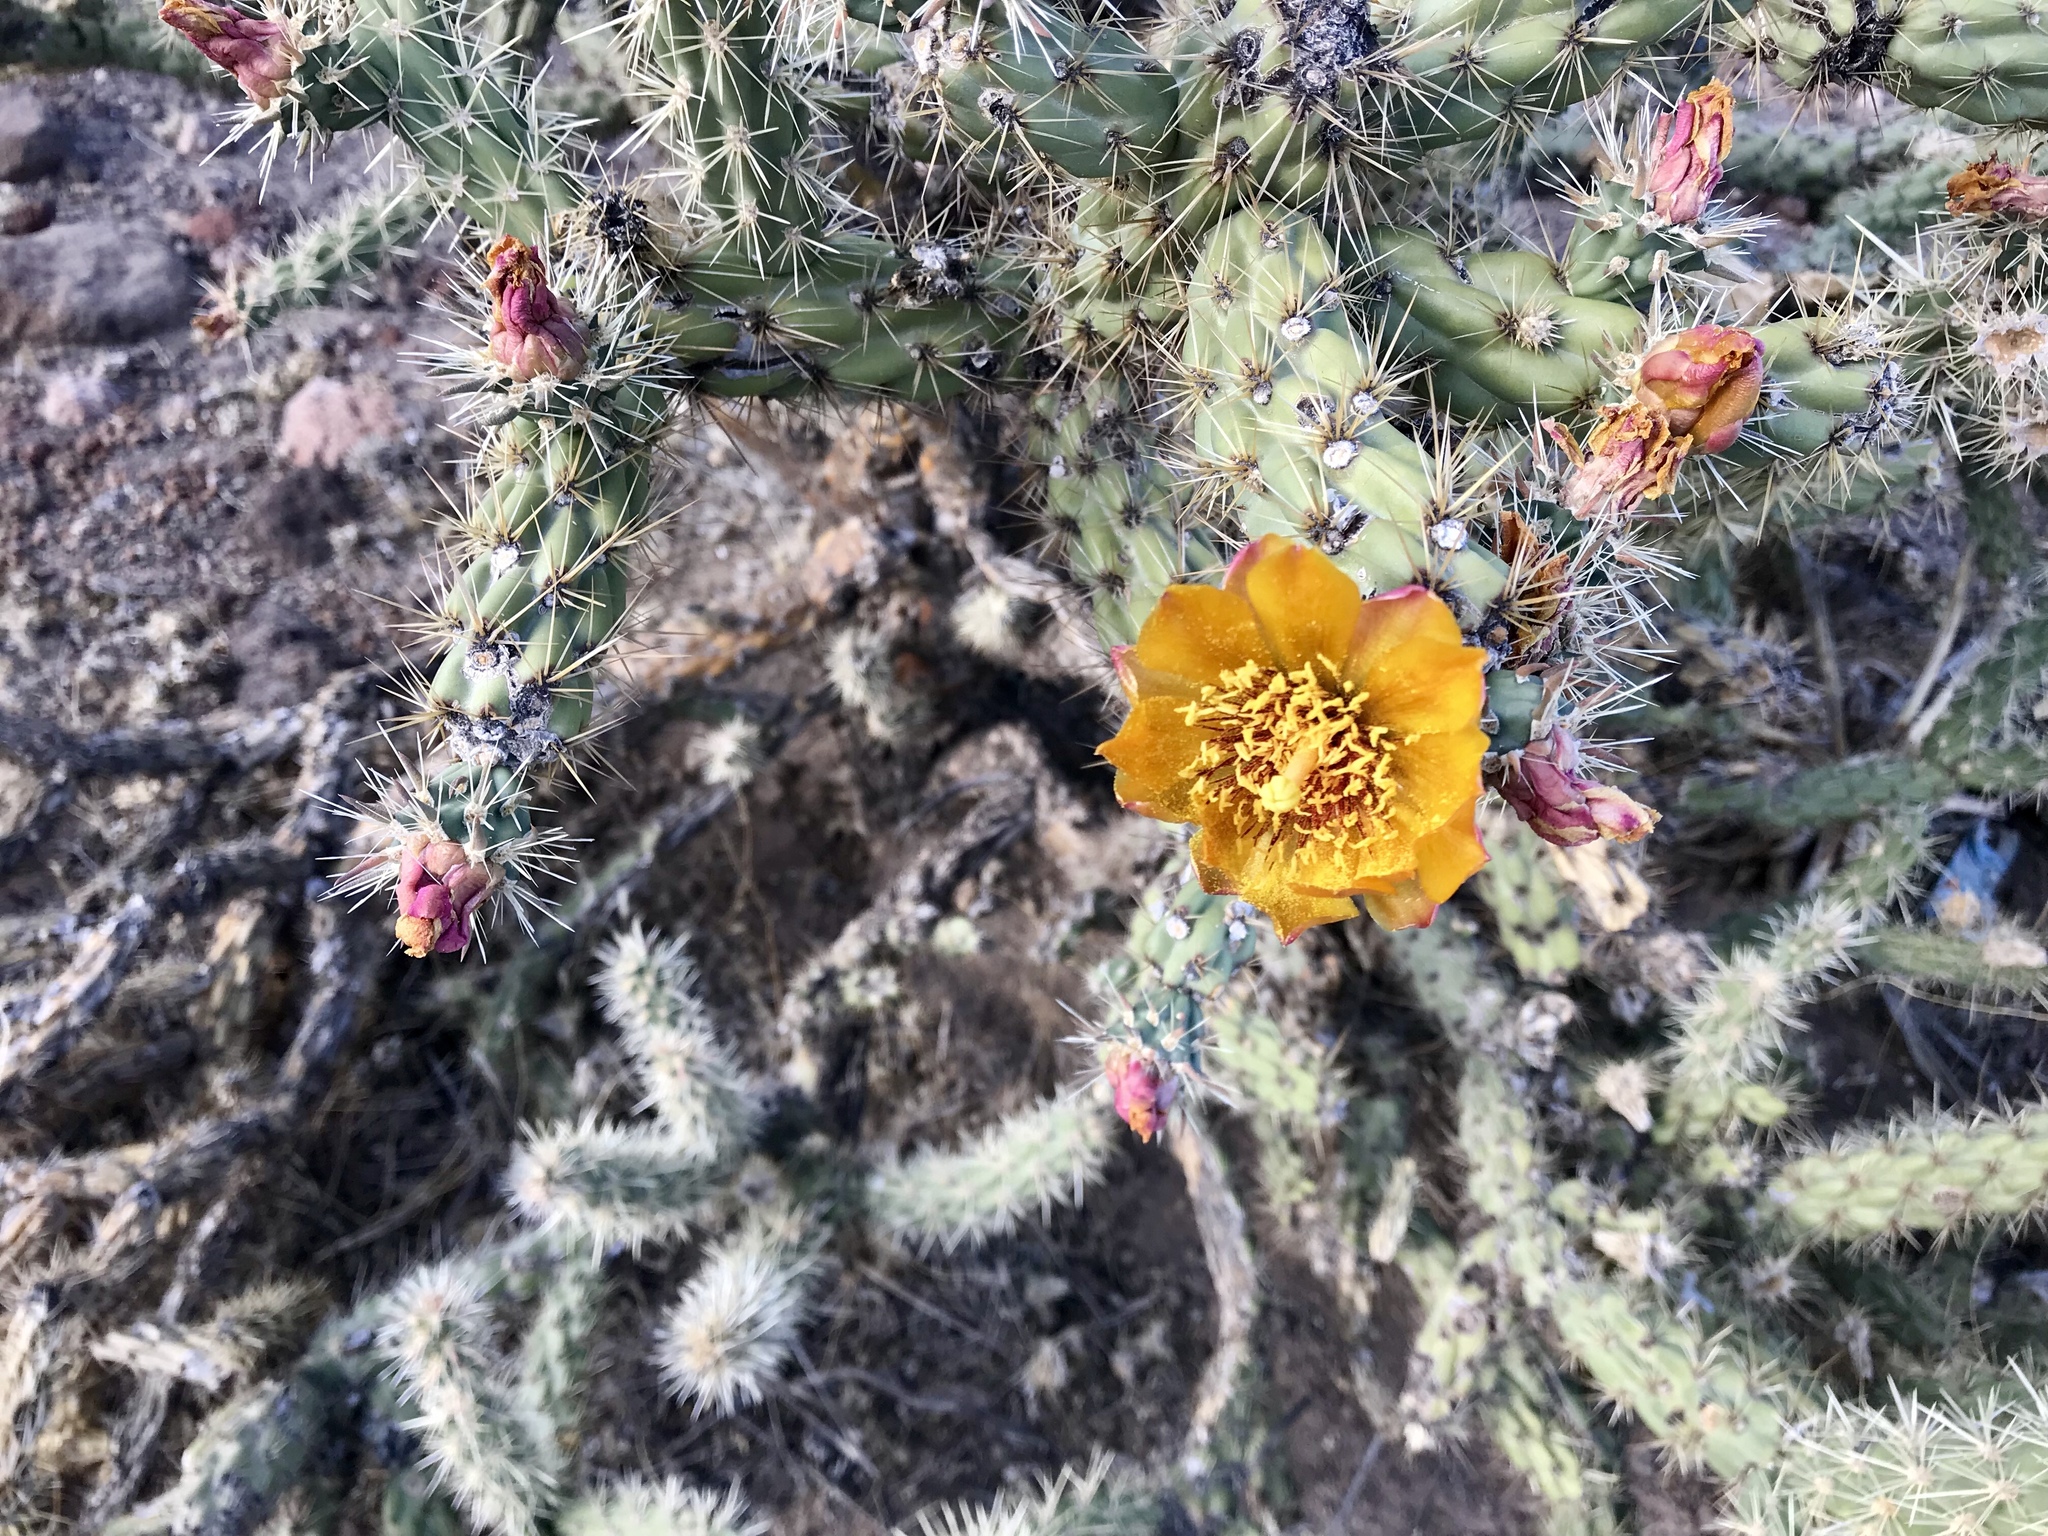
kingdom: Plantae
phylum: Tracheophyta
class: Magnoliopsida
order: Caryophyllales
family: Cactaceae
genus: Cylindropuntia
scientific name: Cylindropuntia acanthocarpa
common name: Buckhorn cholla
